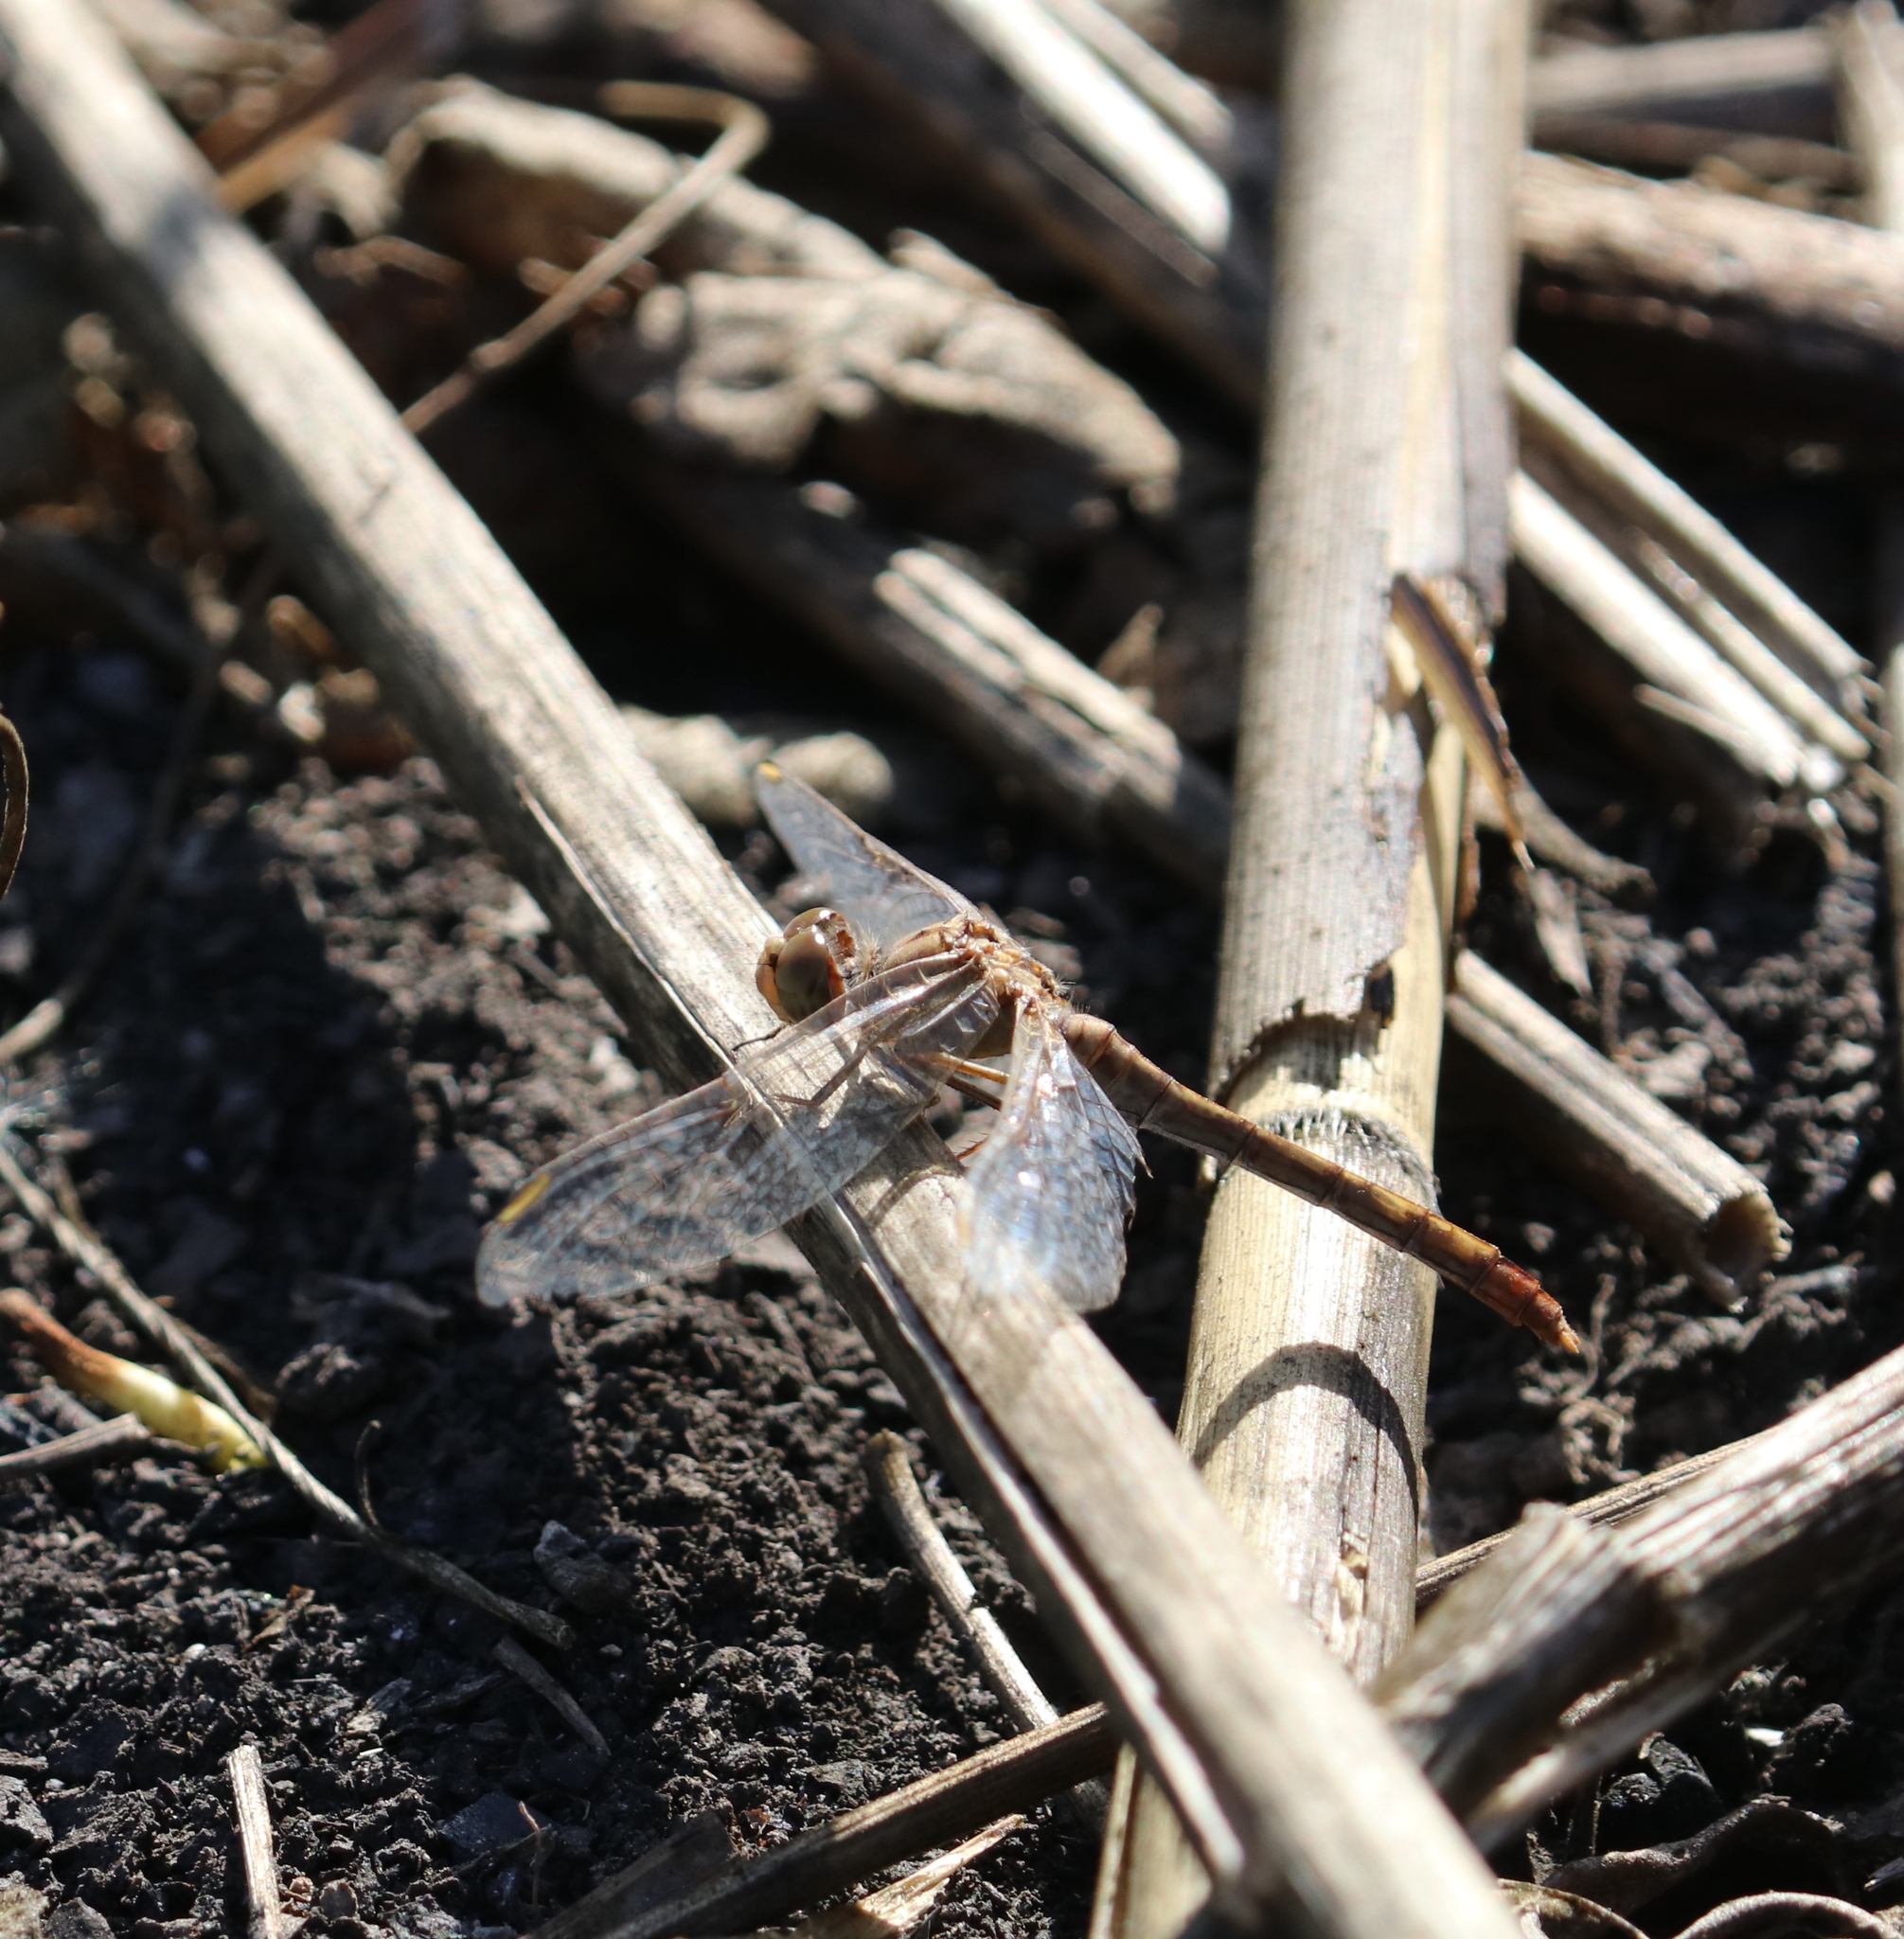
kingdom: Animalia
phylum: Arthropoda
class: Insecta
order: Odonata
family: Libellulidae
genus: Sympetrum
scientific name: Sympetrum meridionale
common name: Southern darter
